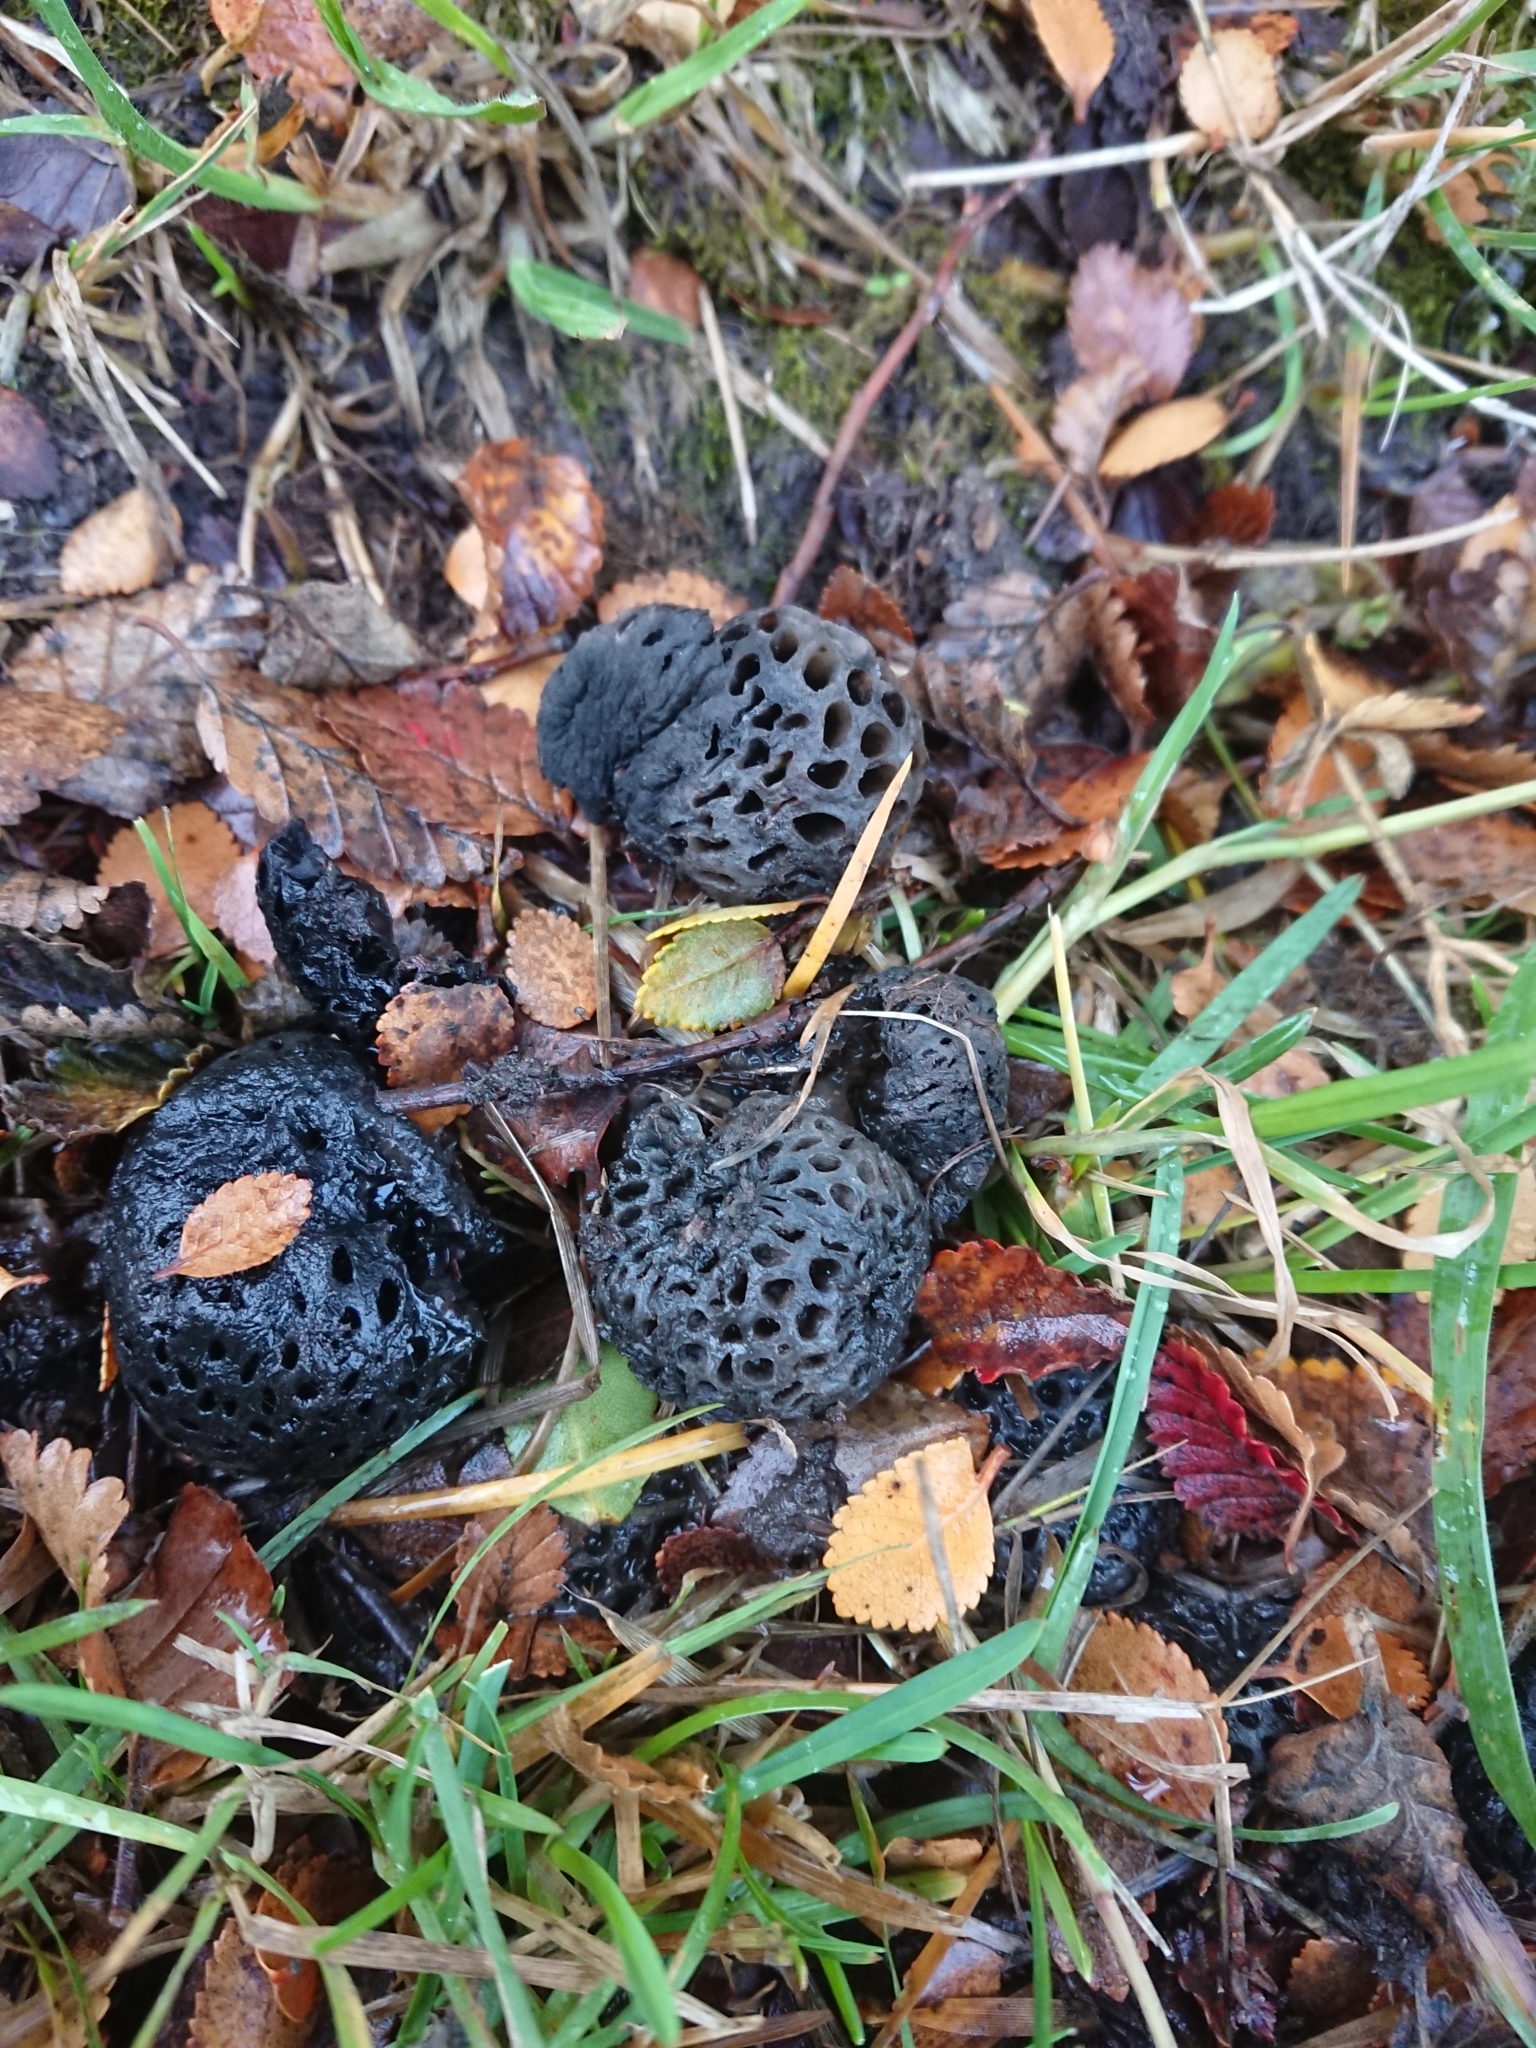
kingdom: Fungi
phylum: Ascomycota
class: Leotiomycetes
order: Cyttariales
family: Cyttariaceae
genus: Cyttaria
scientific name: Cyttaria hariotii
